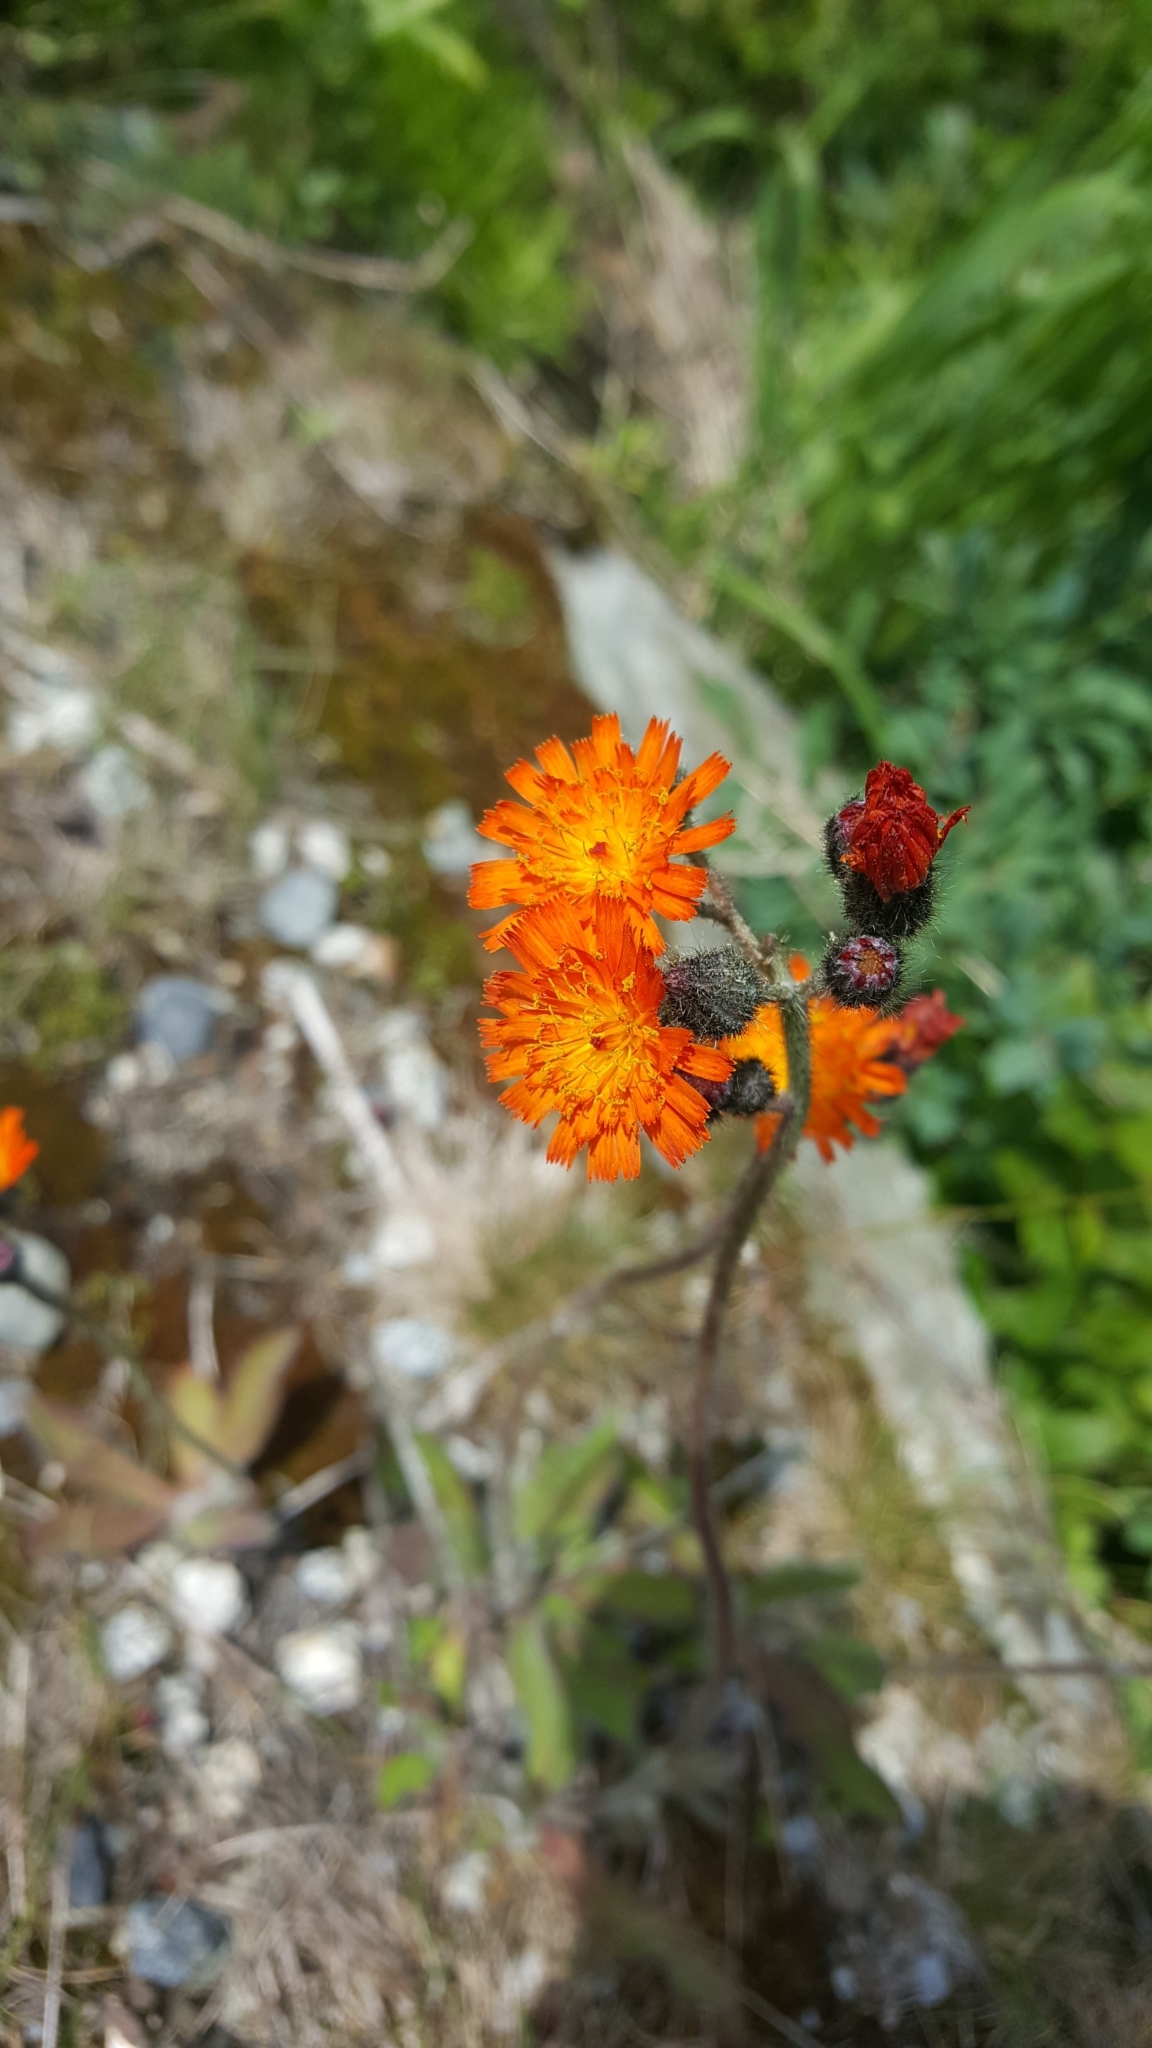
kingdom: Plantae
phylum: Tracheophyta
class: Magnoliopsida
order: Asterales
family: Asteraceae
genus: Pilosella
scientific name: Pilosella aurantiaca
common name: Fox-and-cubs
